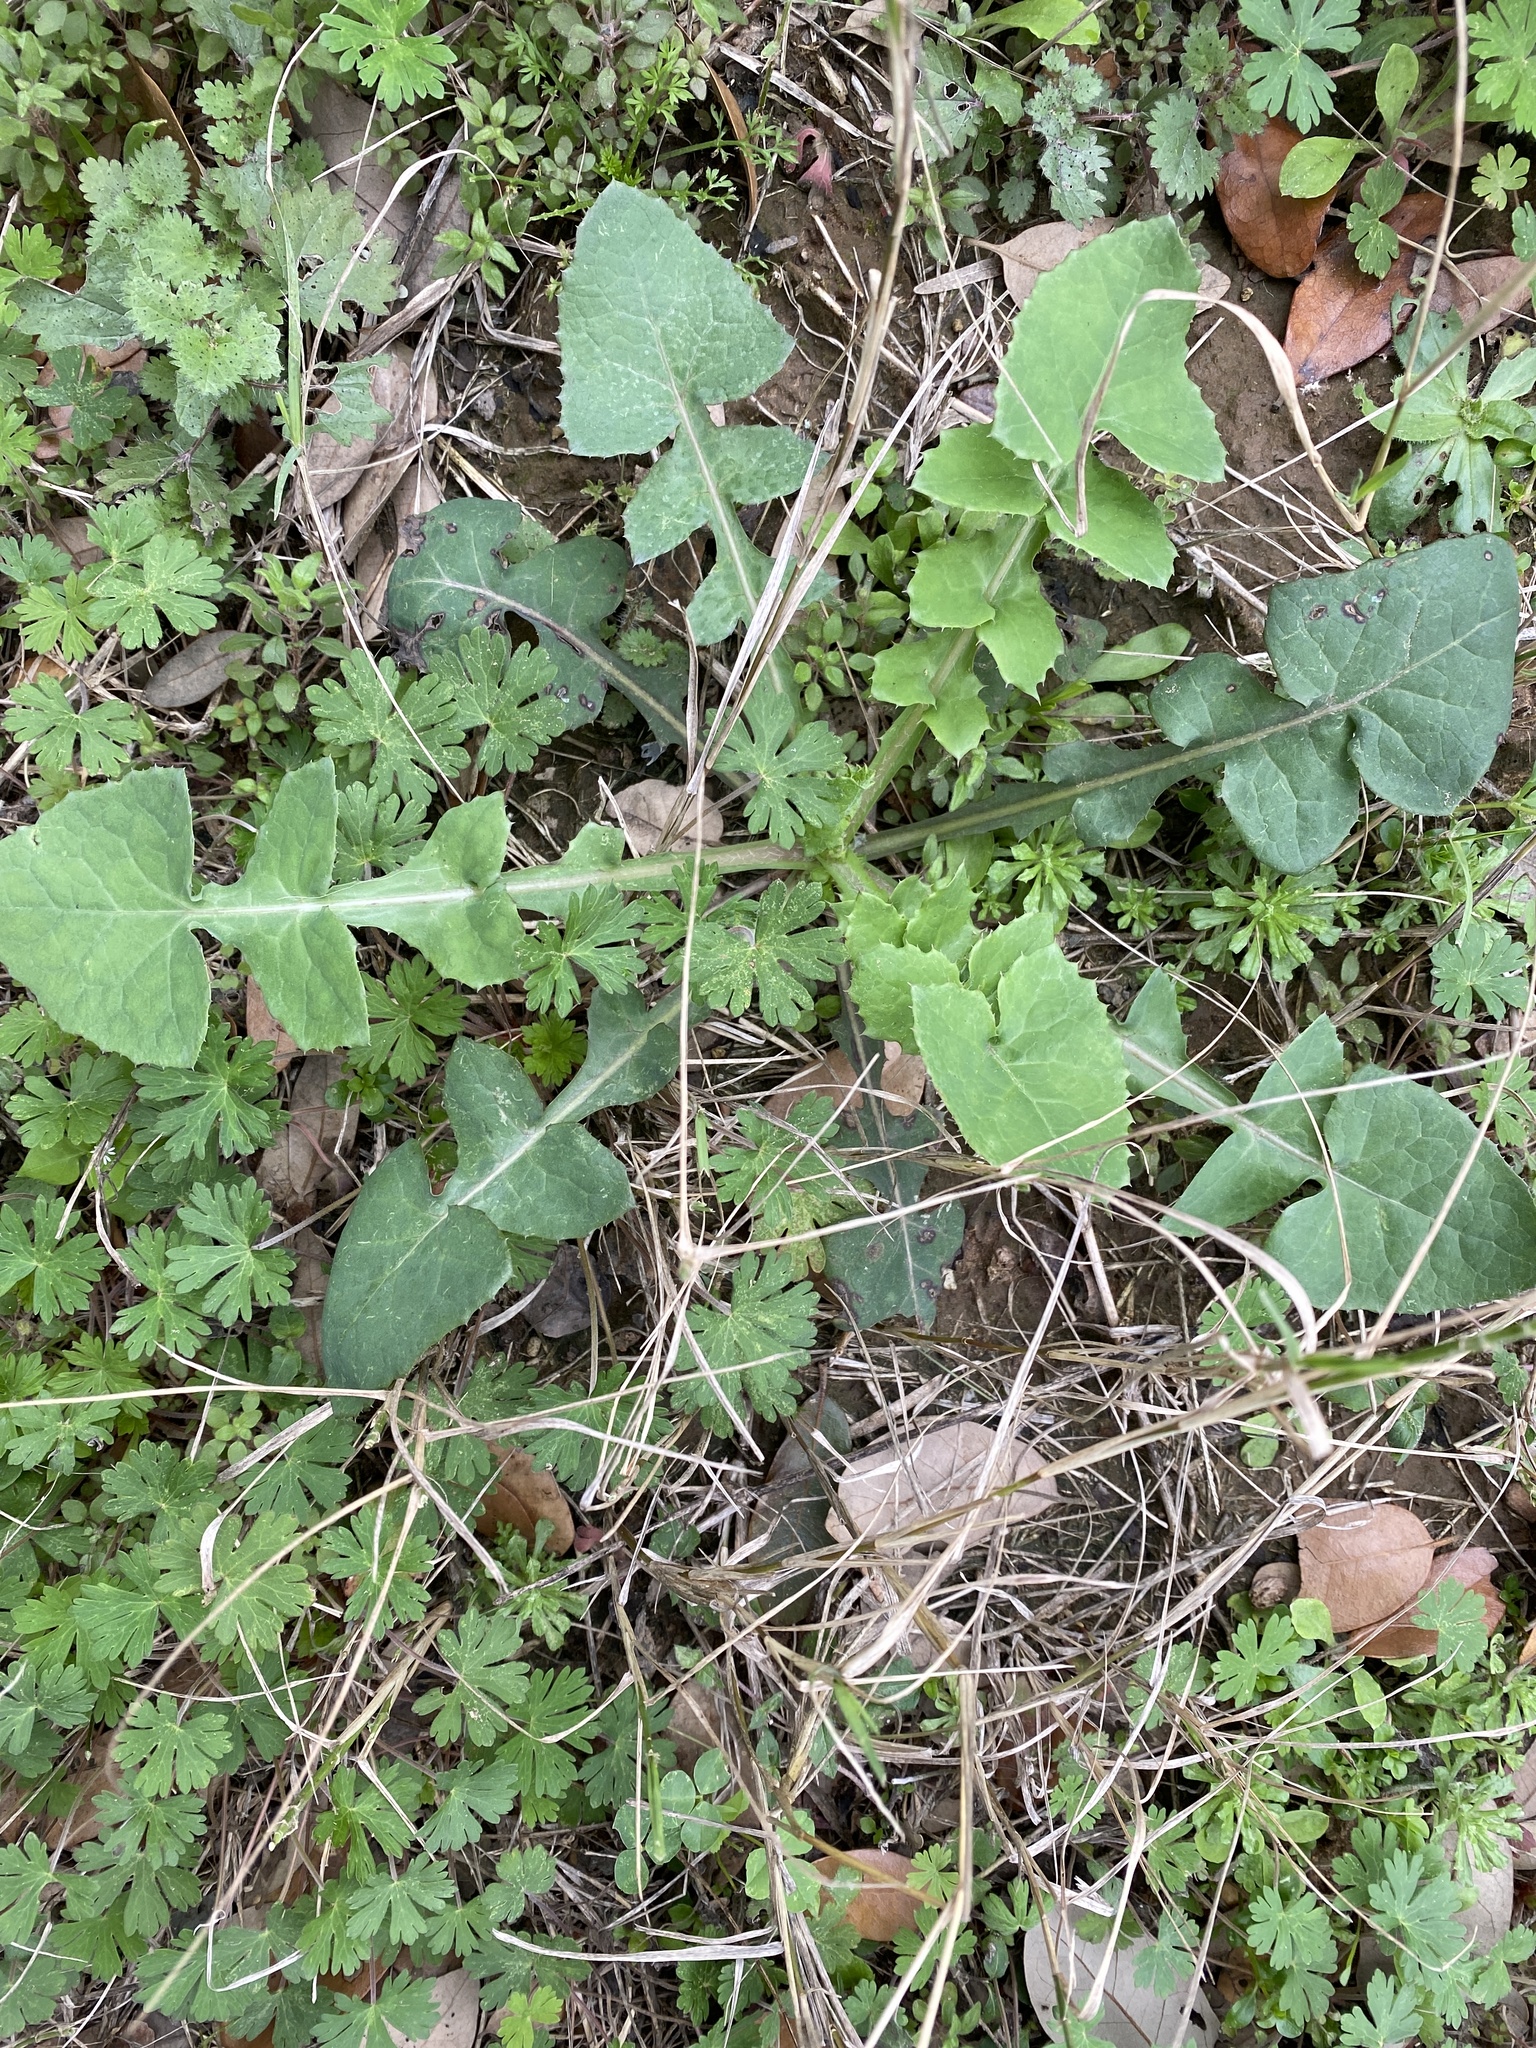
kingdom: Plantae
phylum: Tracheophyta
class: Magnoliopsida
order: Asterales
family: Asteraceae
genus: Sonchus
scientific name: Sonchus oleraceus
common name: Common sowthistle
